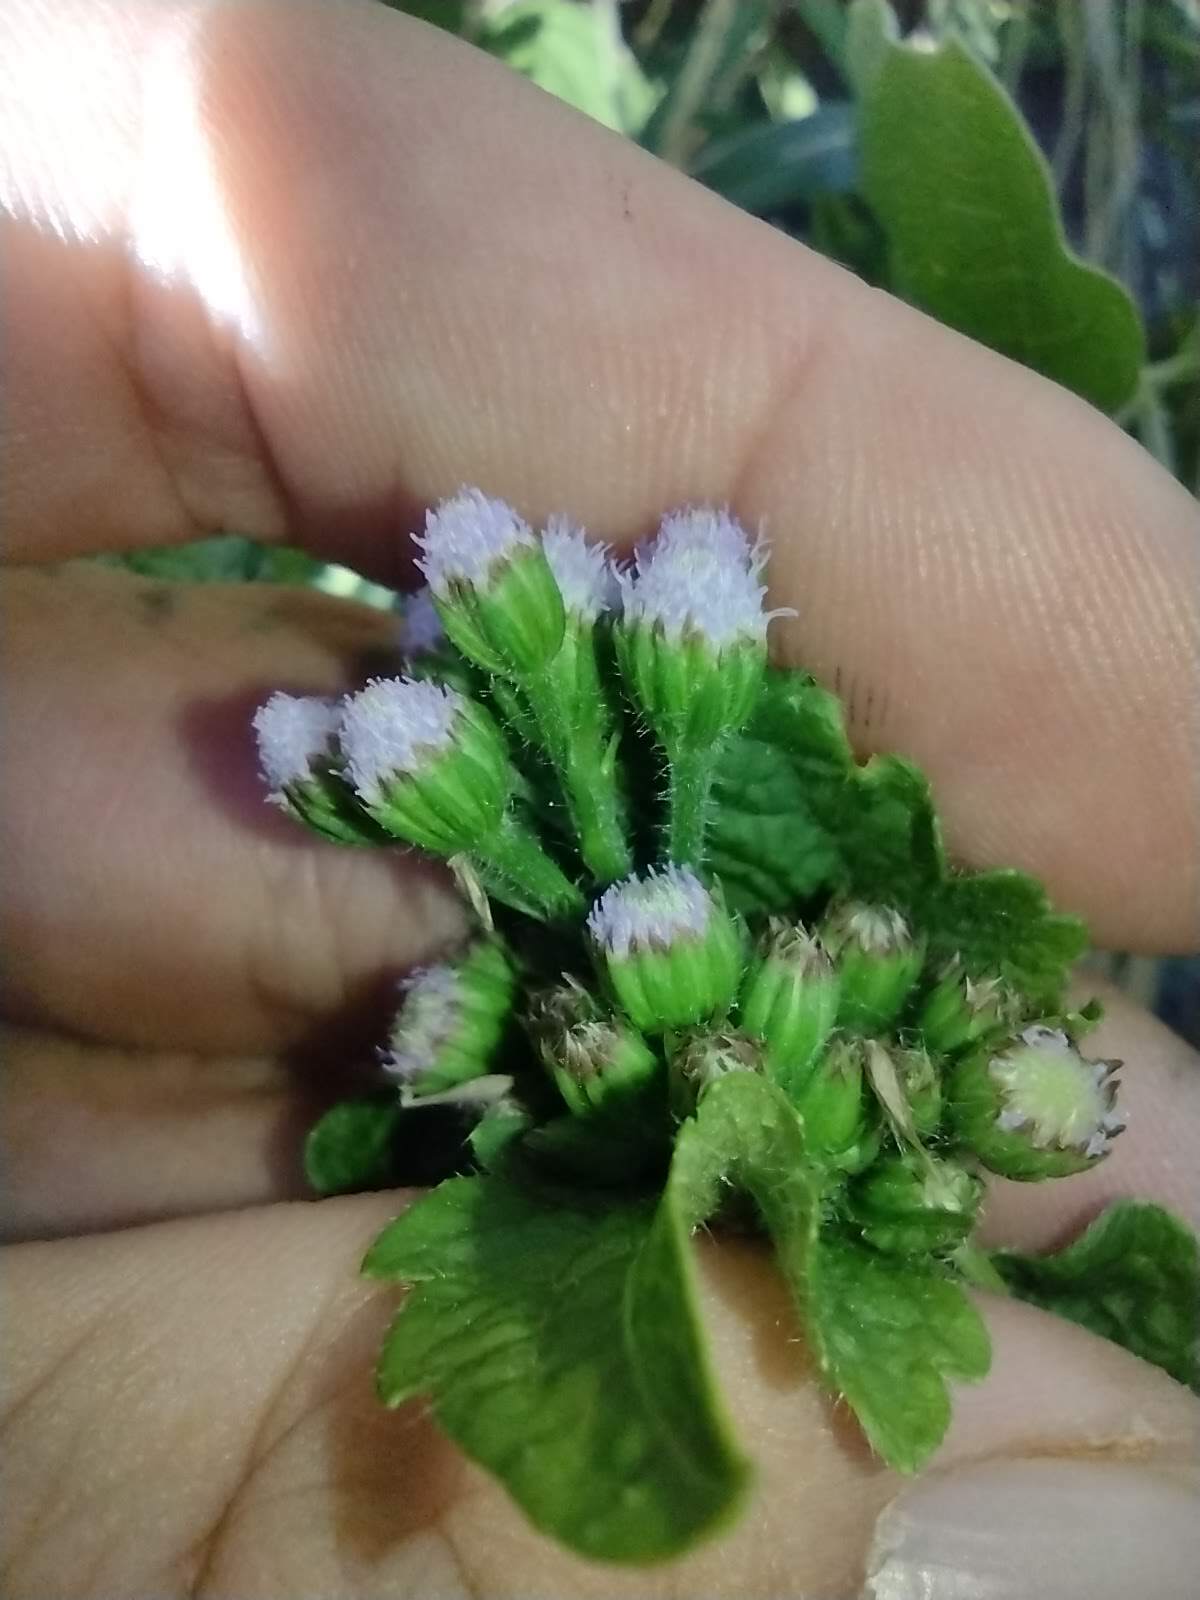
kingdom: Plantae
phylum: Tracheophyta
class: Magnoliopsida
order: Asterales
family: Asteraceae
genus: Ageratum
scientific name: Ageratum conyzoides
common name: Tropical whiteweed
